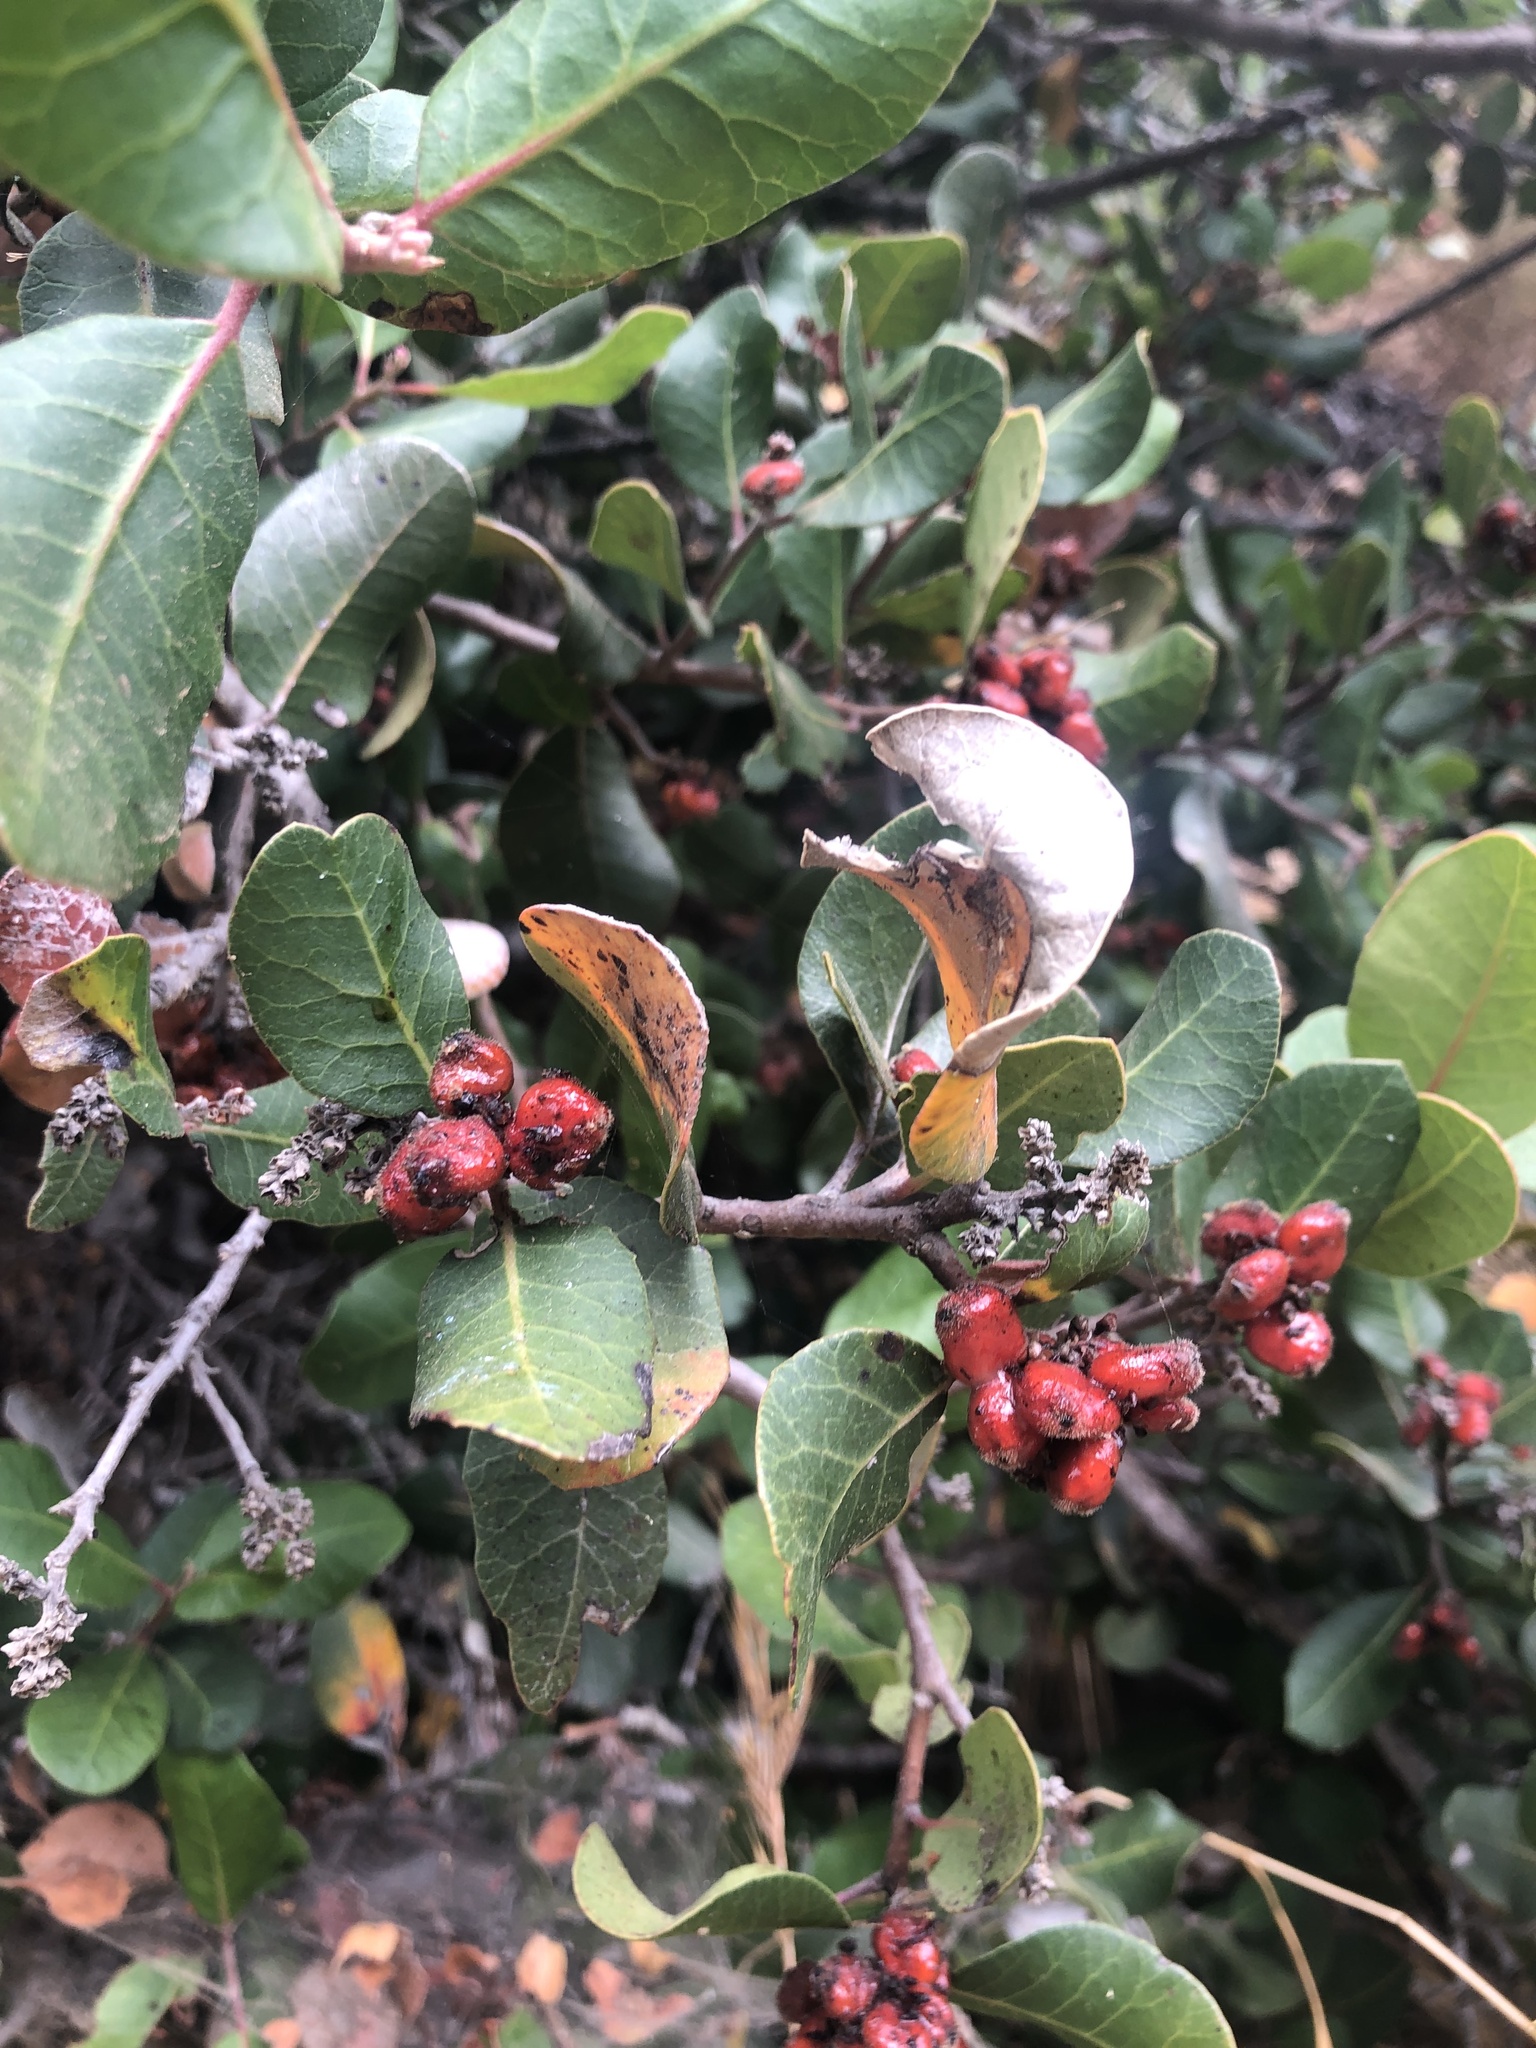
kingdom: Plantae
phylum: Tracheophyta
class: Magnoliopsida
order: Sapindales
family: Anacardiaceae
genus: Rhus
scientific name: Rhus integrifolia
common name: Lemonade sumac
